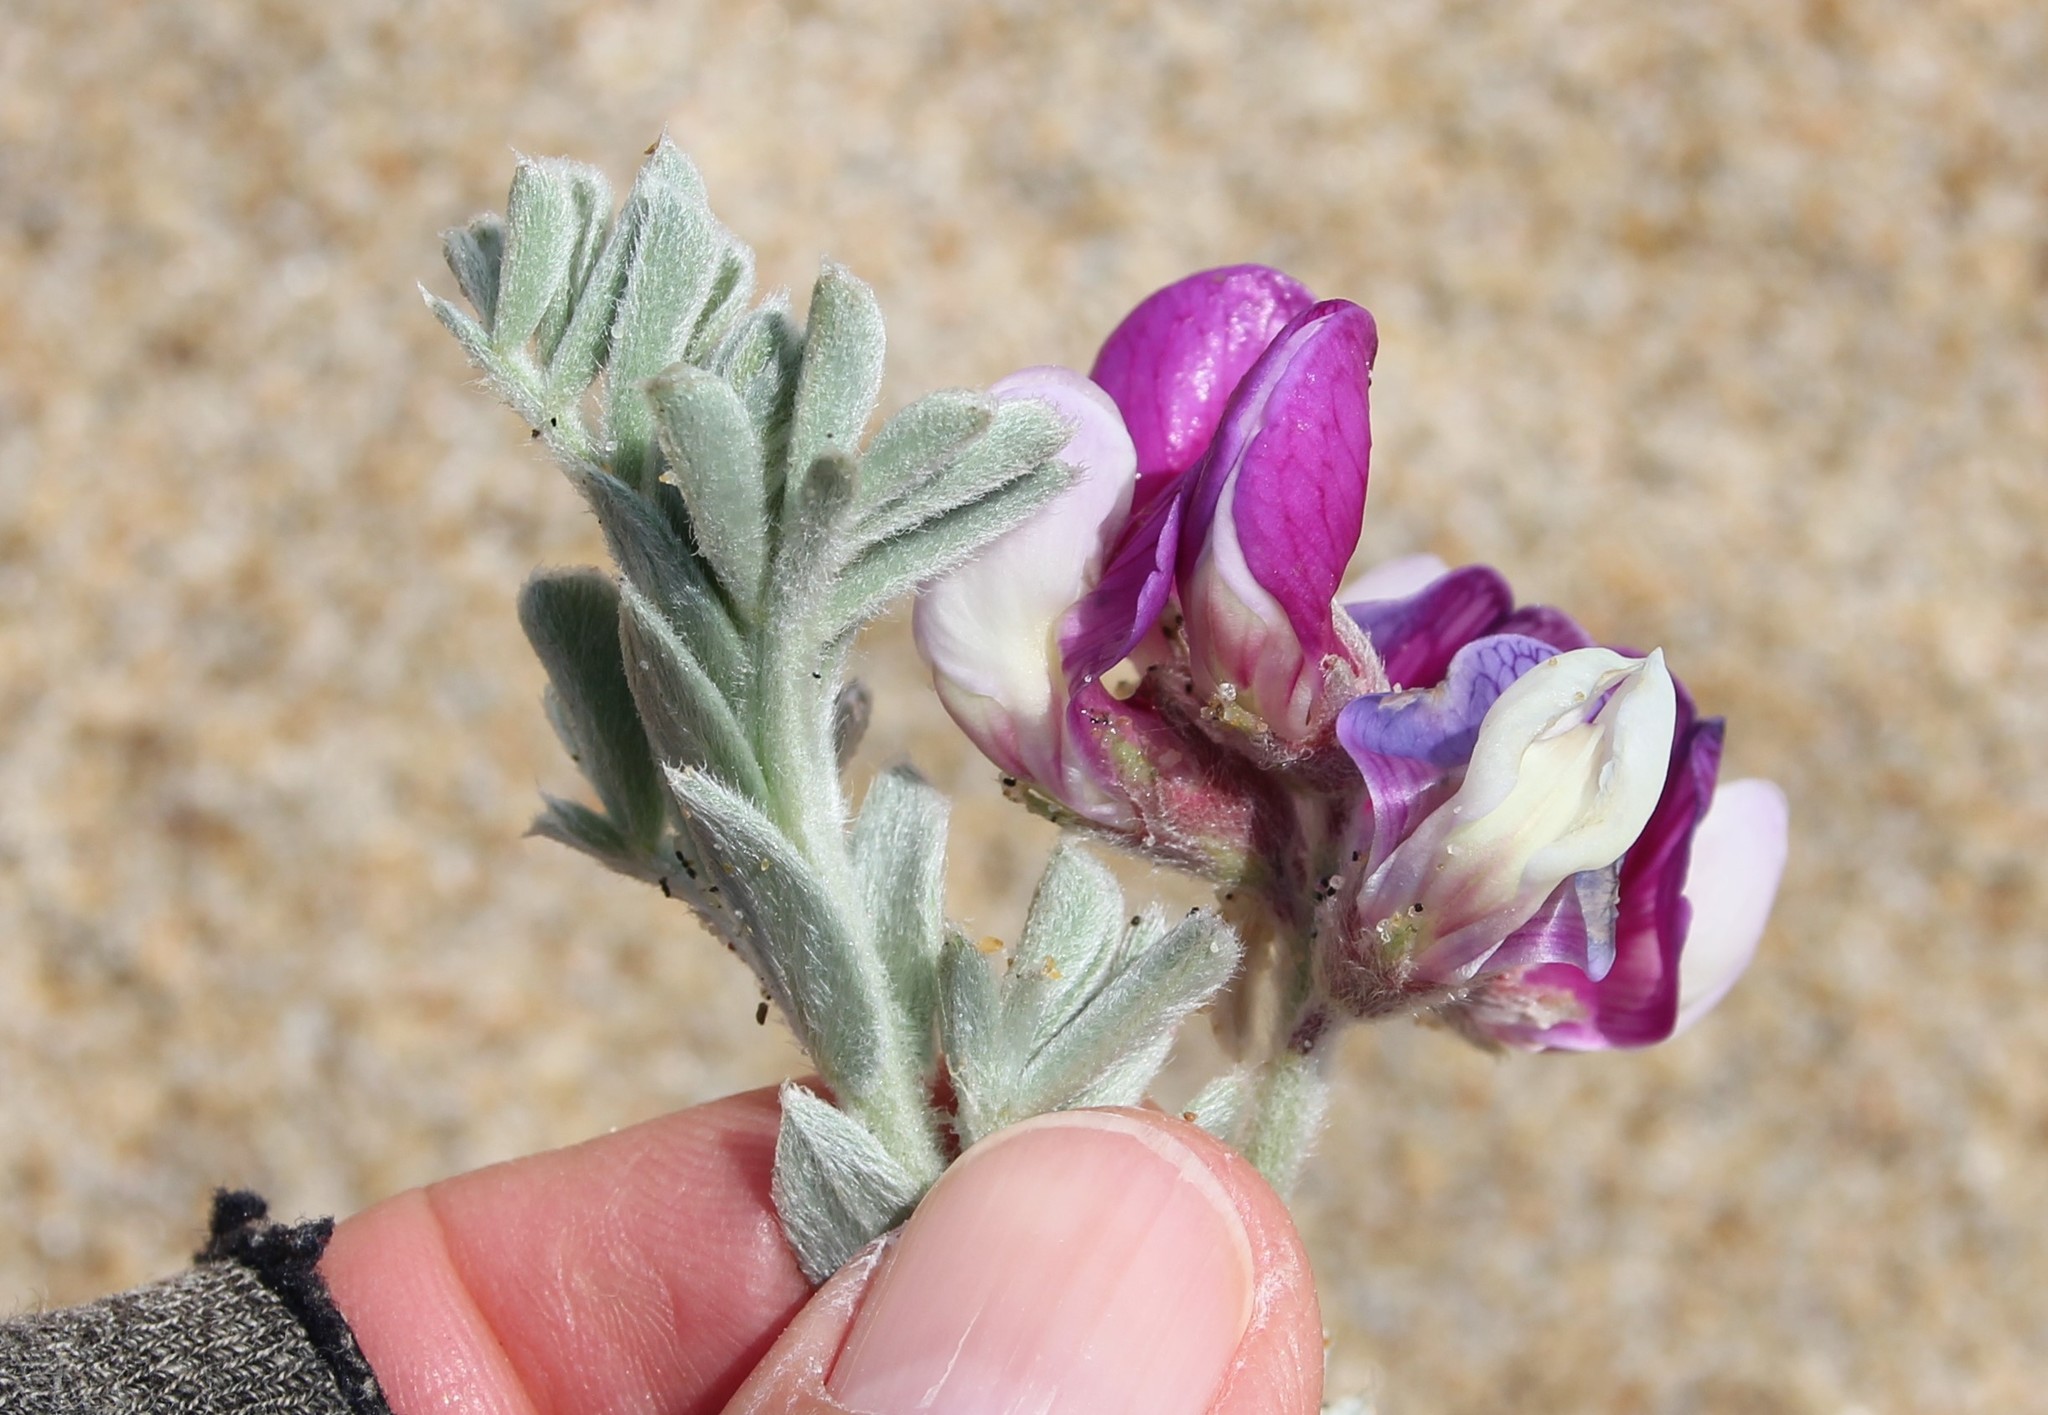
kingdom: Plantae
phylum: Tracheophyta
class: Magnoliopsida
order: Fabales
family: Fabaceae
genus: Lathyrus
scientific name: Lathyrus littoralis
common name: Dune sweet pea
